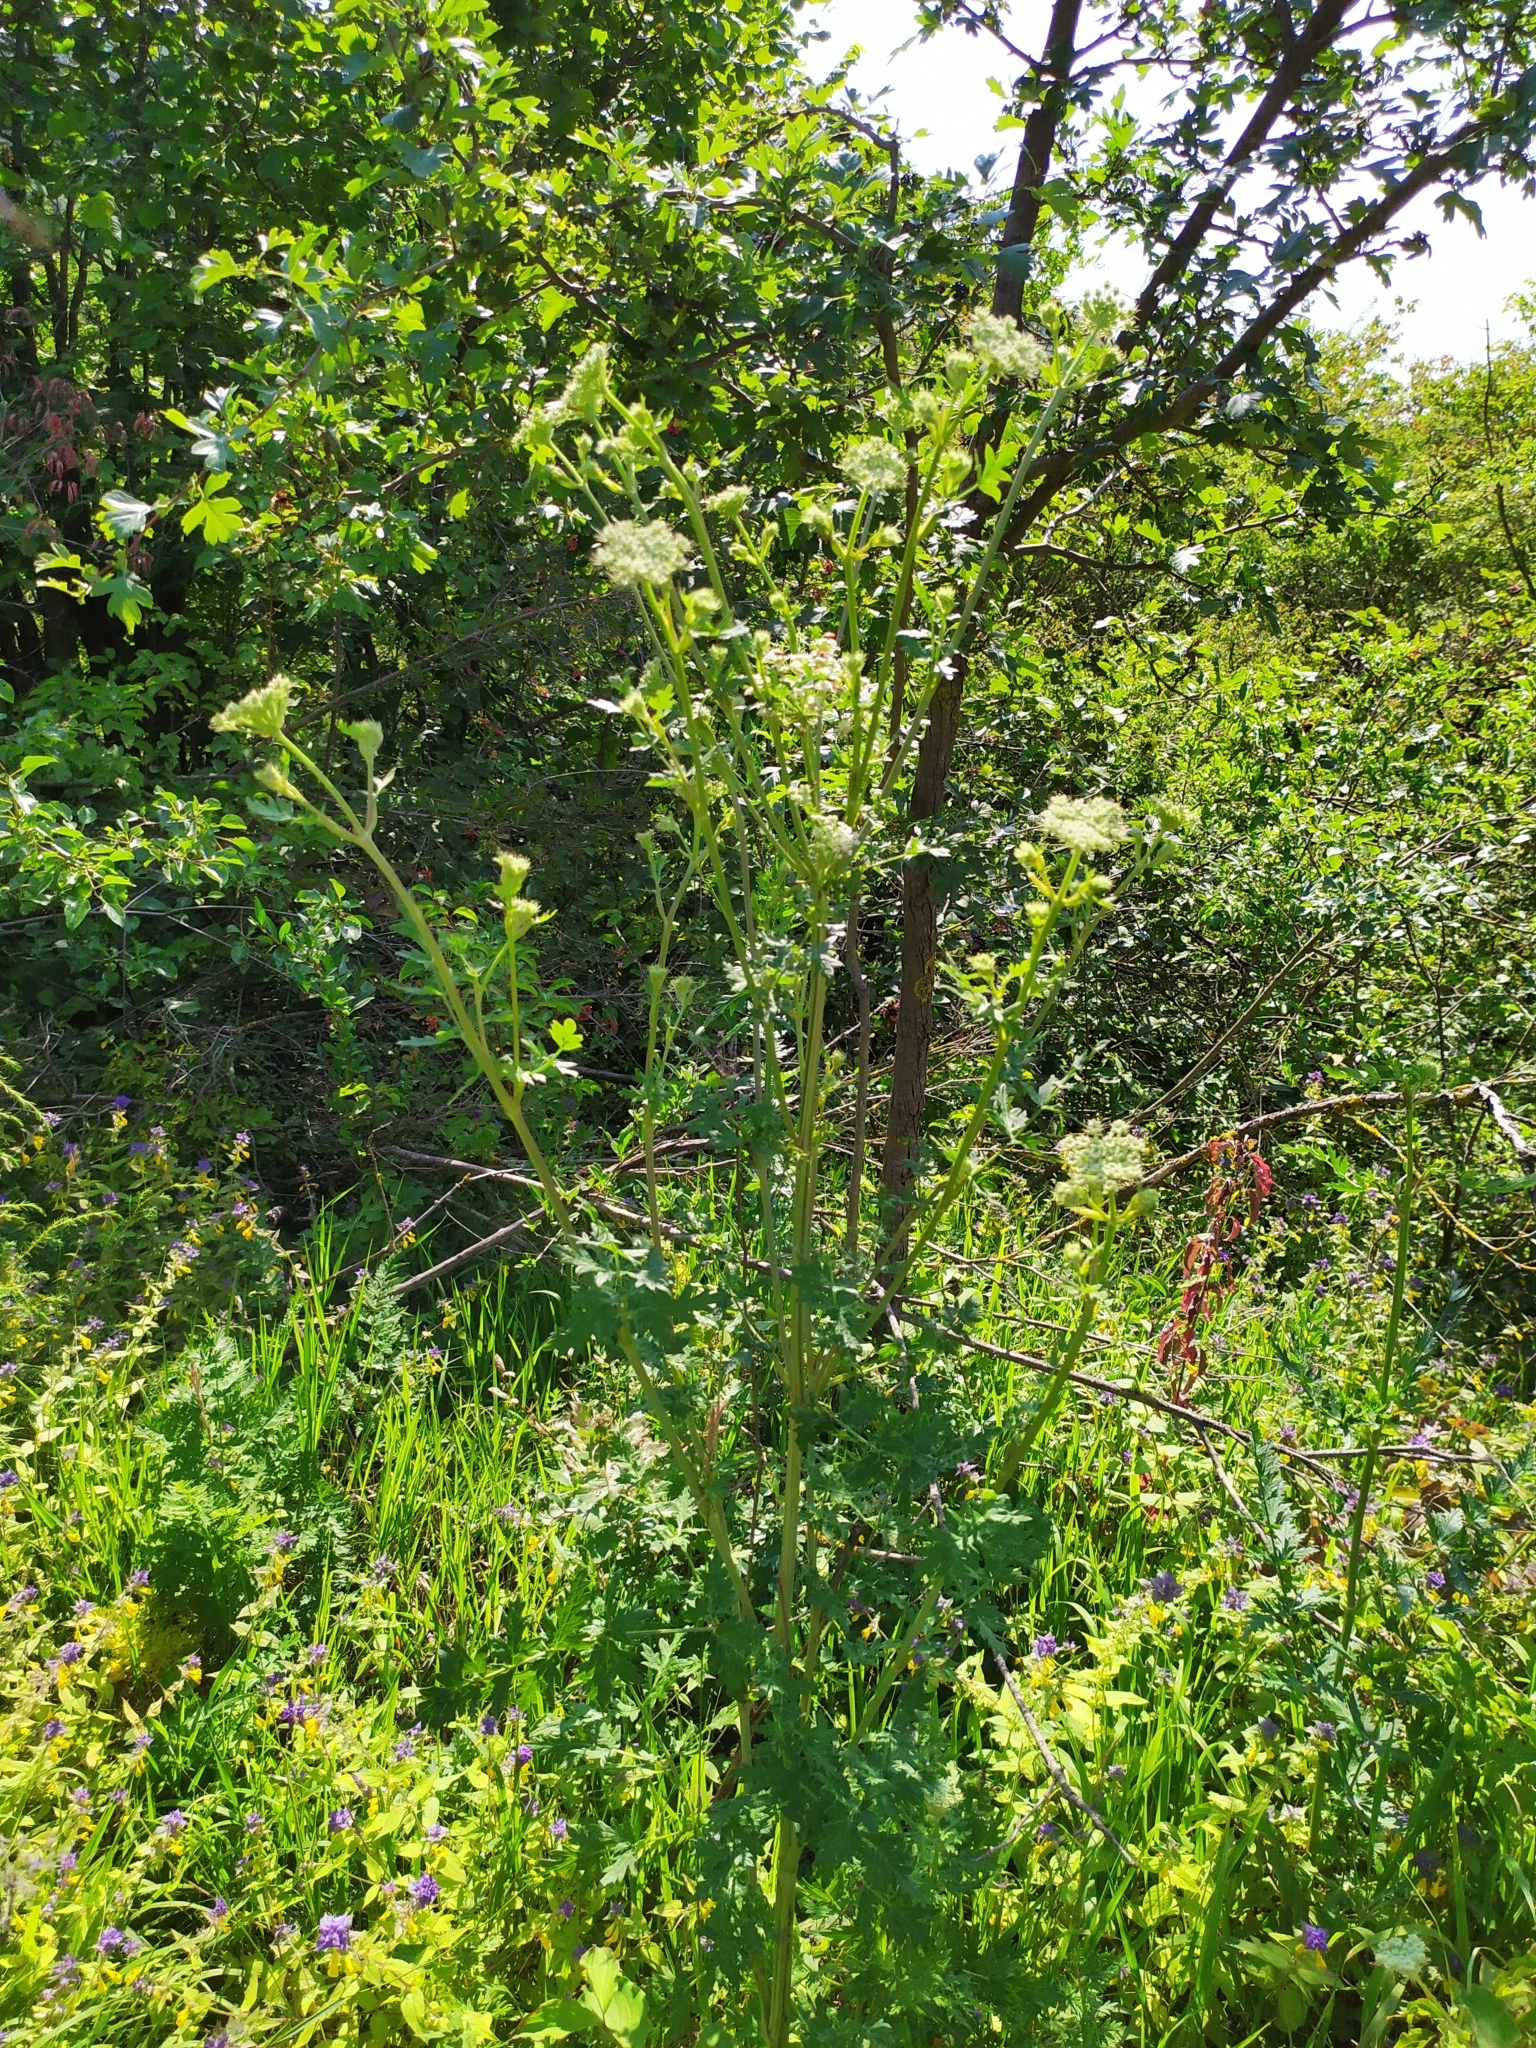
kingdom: Plantae
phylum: Tracheophyta
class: Magnoliopsida
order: Apiales
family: Apiaceae
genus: Seseli
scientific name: Seseli libanotis
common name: Mooncarrot
